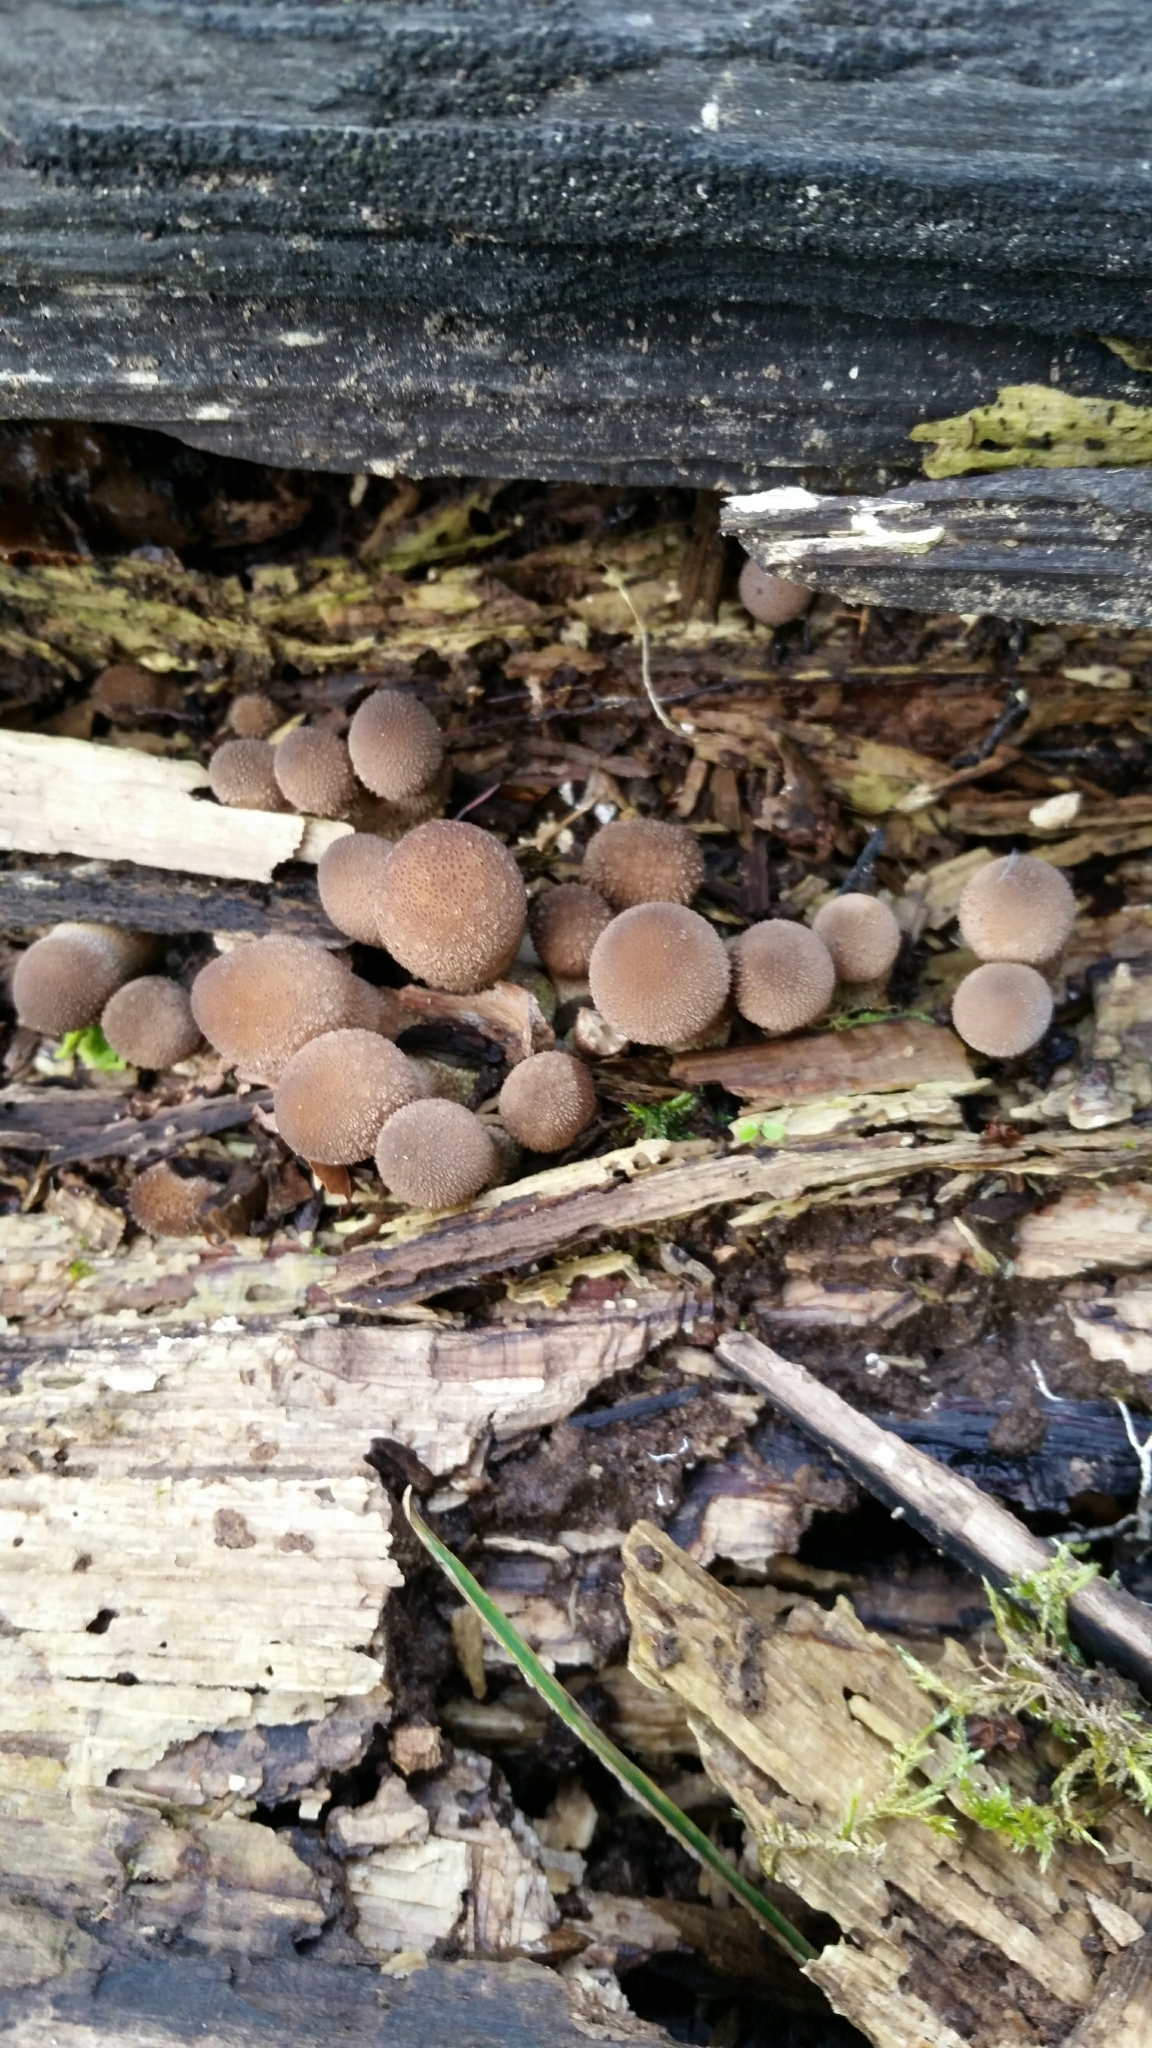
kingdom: Fungi
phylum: Basidiomycota
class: Agaricomycetes
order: Agaricales
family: Lycoperdaceae
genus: Apioperdon
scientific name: Apioperdon pyriforme
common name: Pear-shaped puffball
